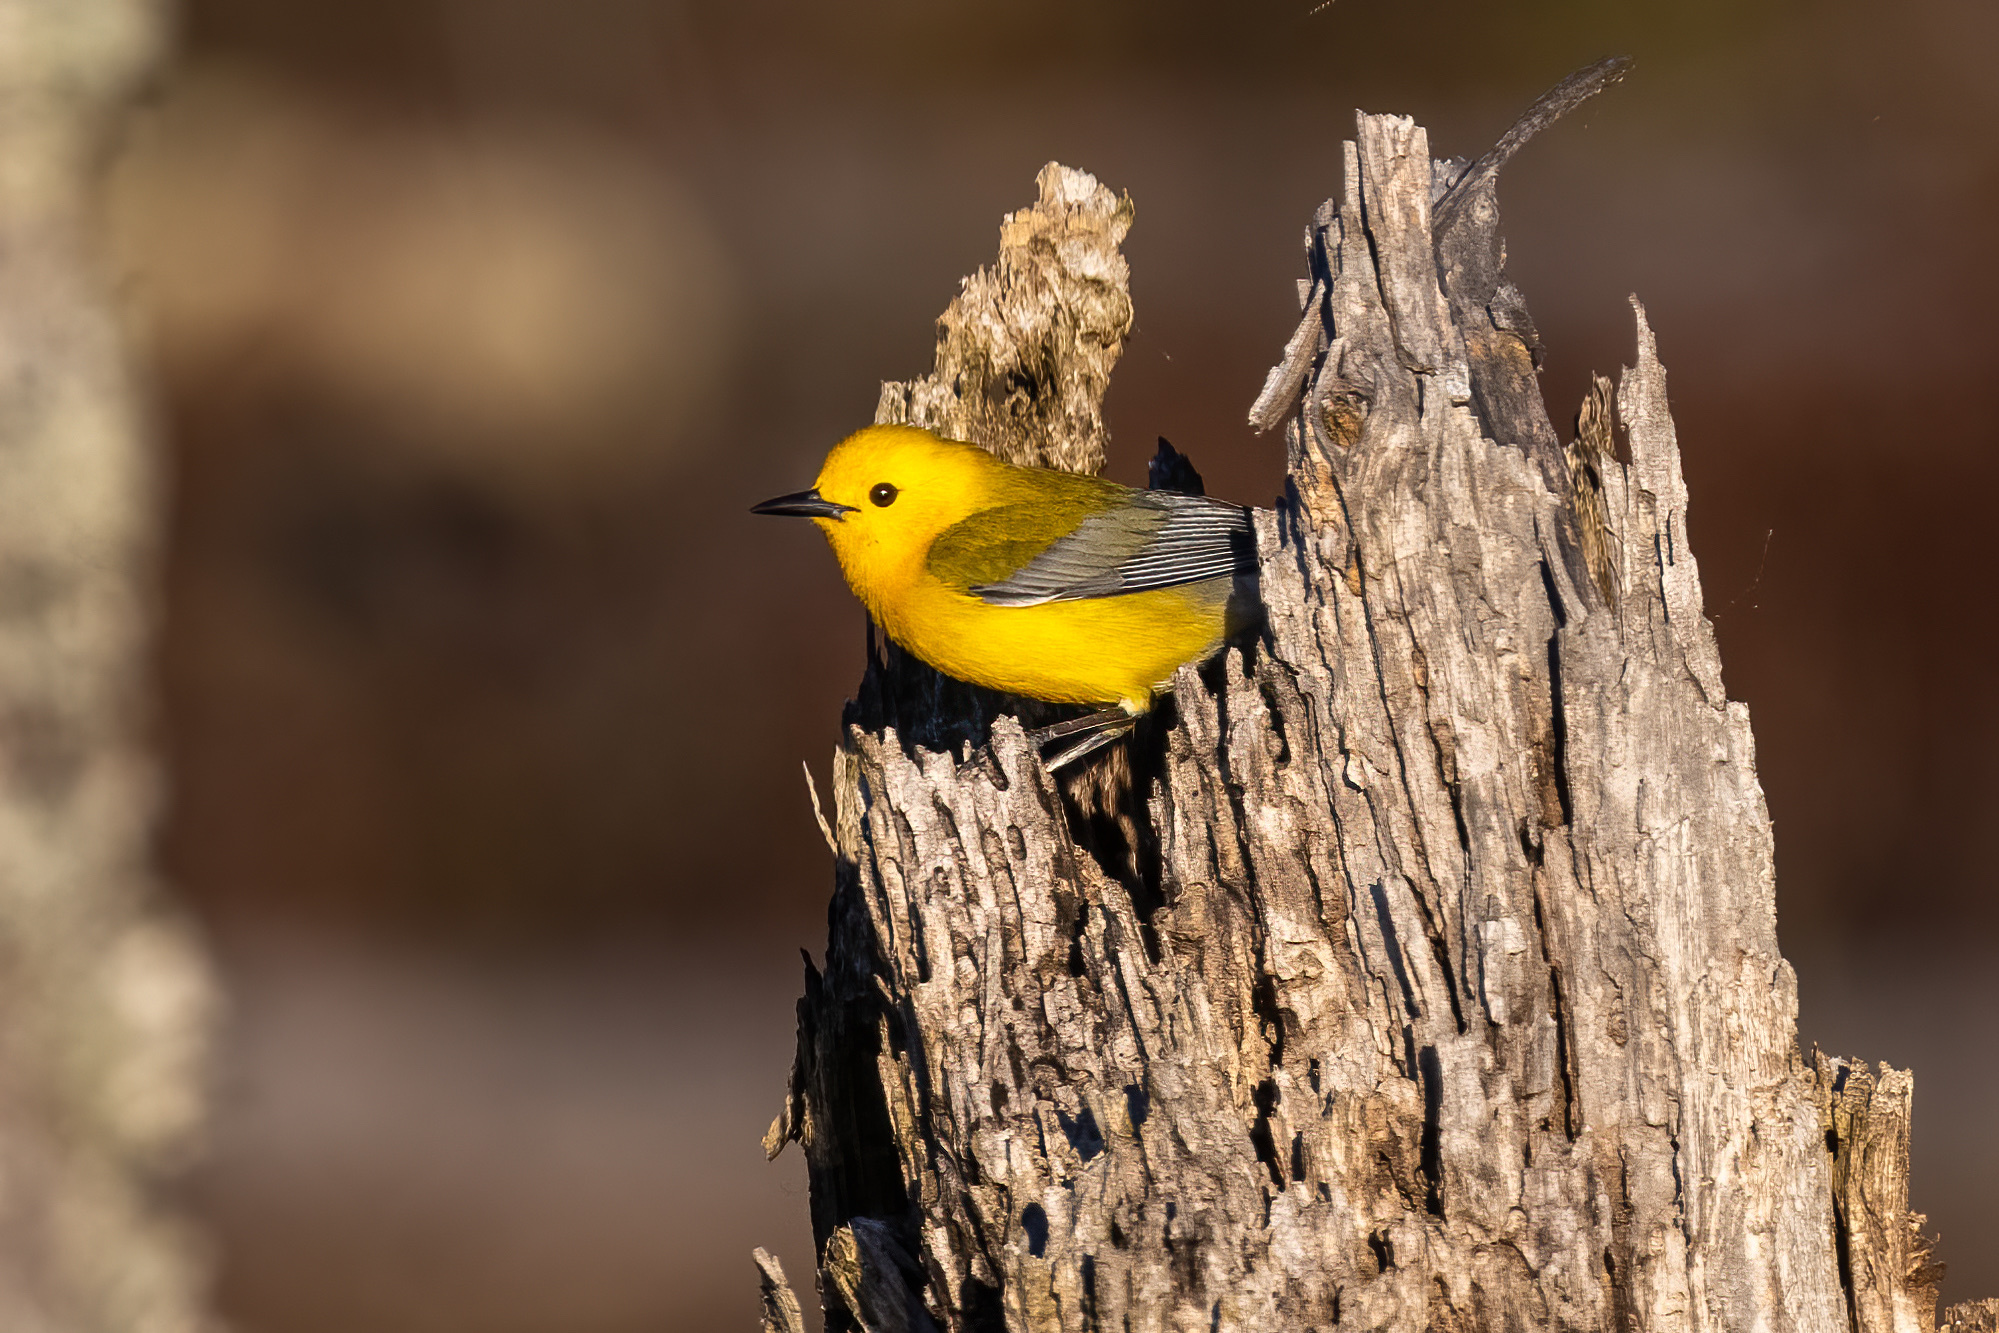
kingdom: Animalia
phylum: Chordata
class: Aves
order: Passeriformes
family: Parulidae
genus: Protonotaria
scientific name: Protonotaria citrea
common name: Prothonotary warbler
